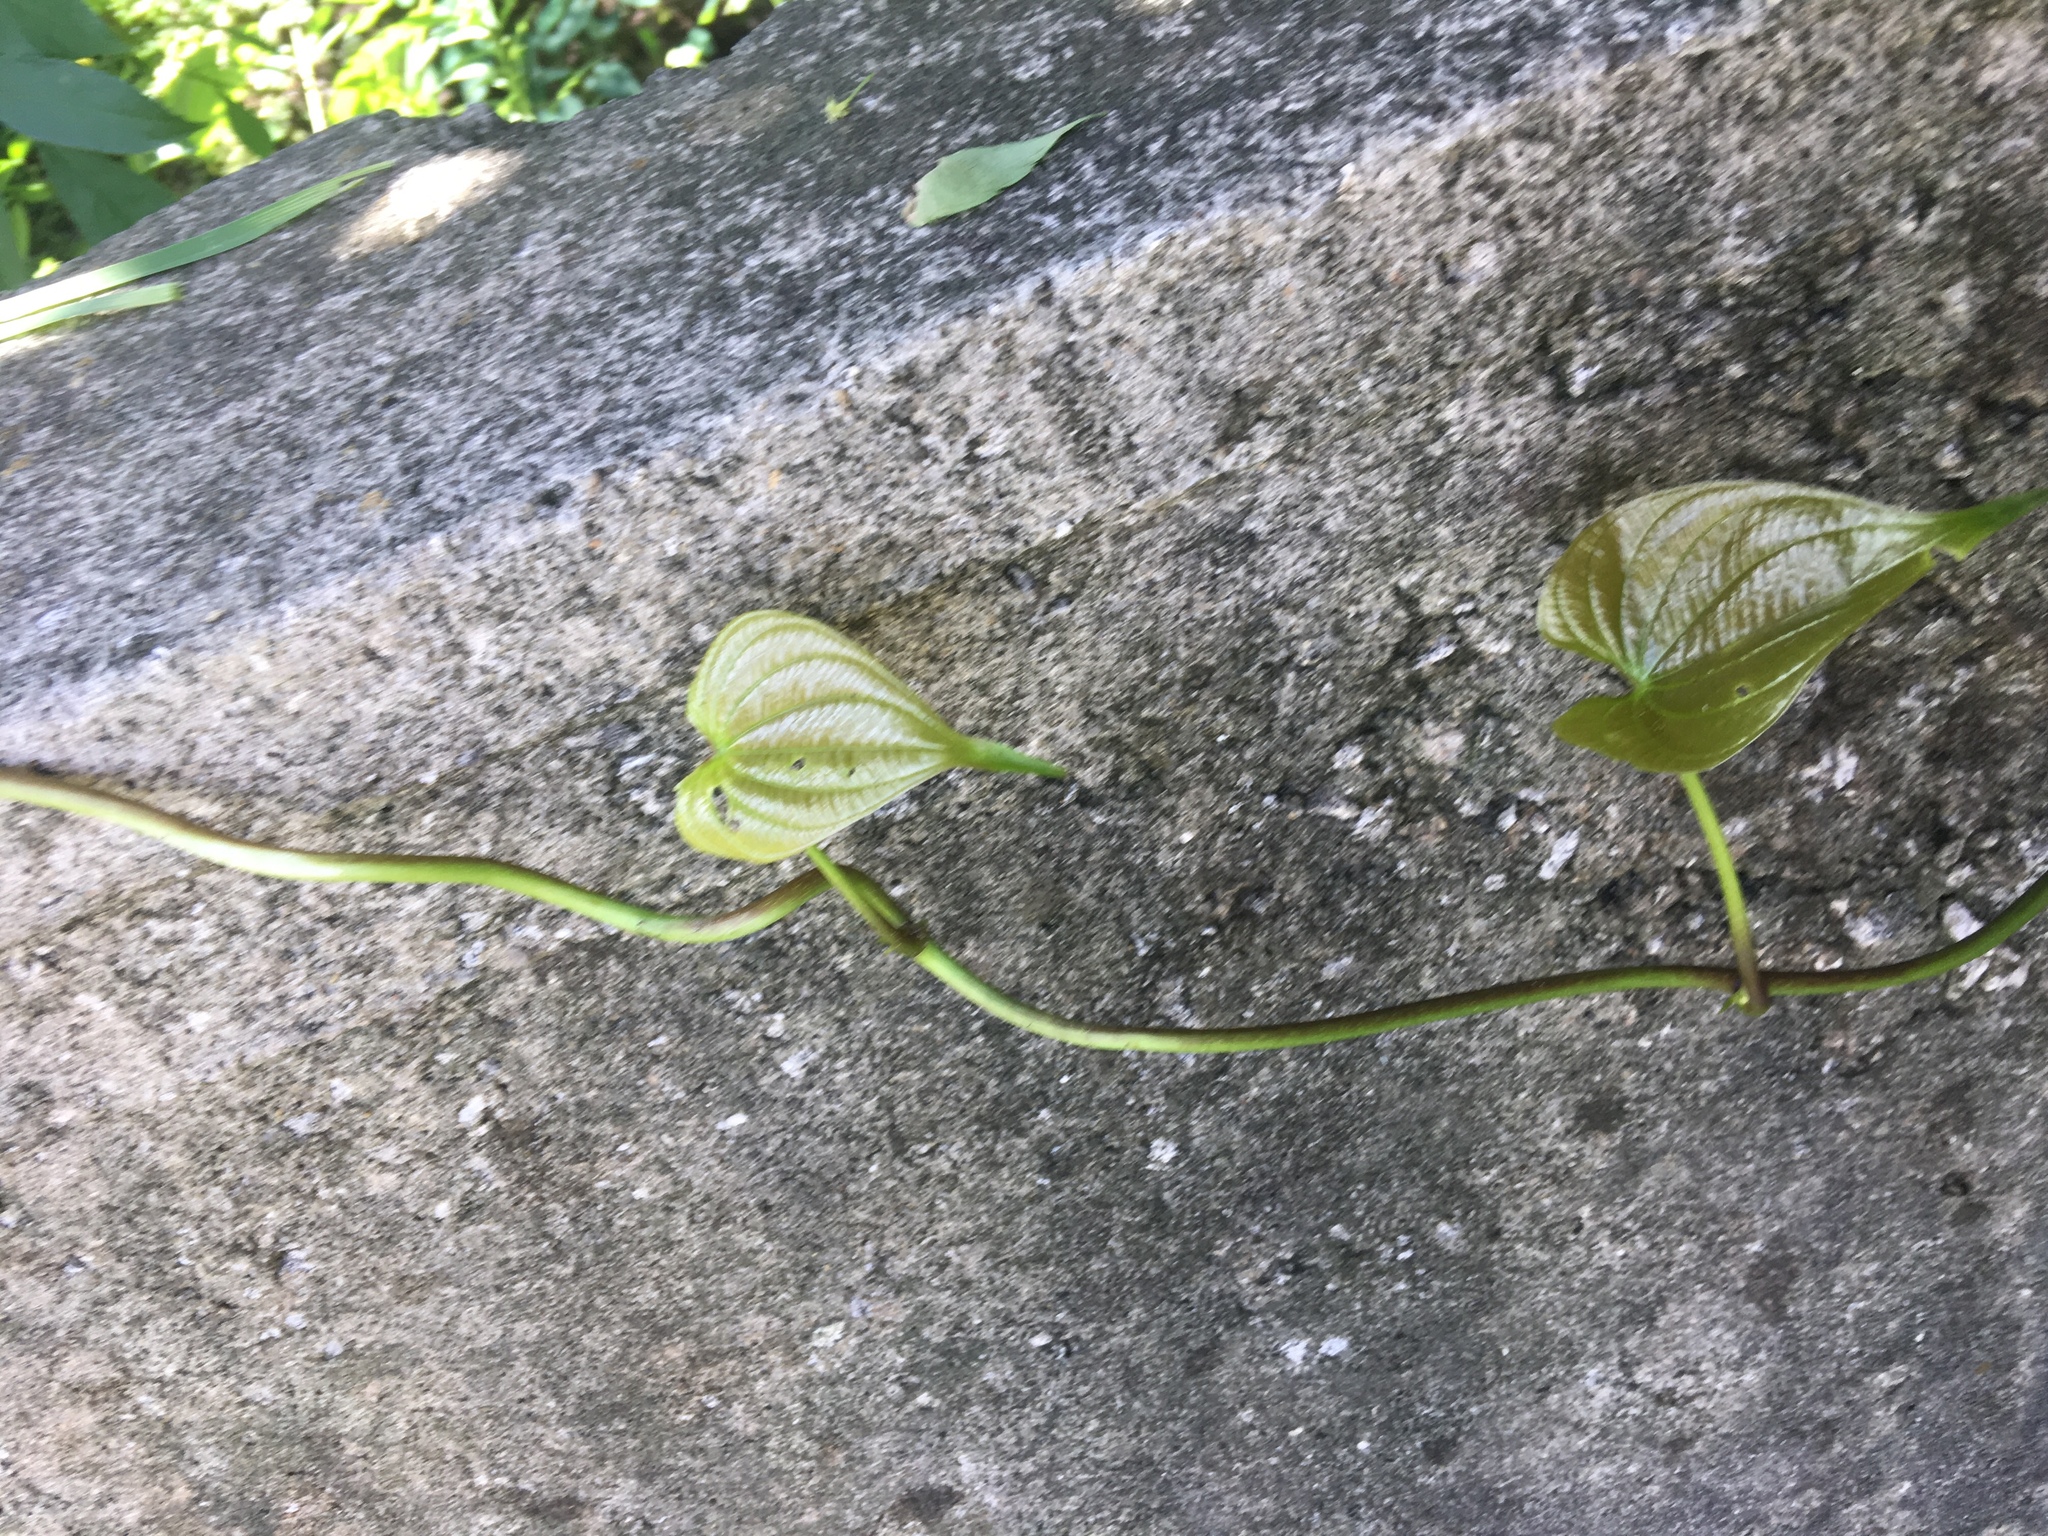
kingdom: Plantae
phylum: Tracheophyta
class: Liliopsida
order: Dioscoreales
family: Dioscoreaceae
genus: Dioscorea
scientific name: Dioscorea bulbifera
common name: Air yam
